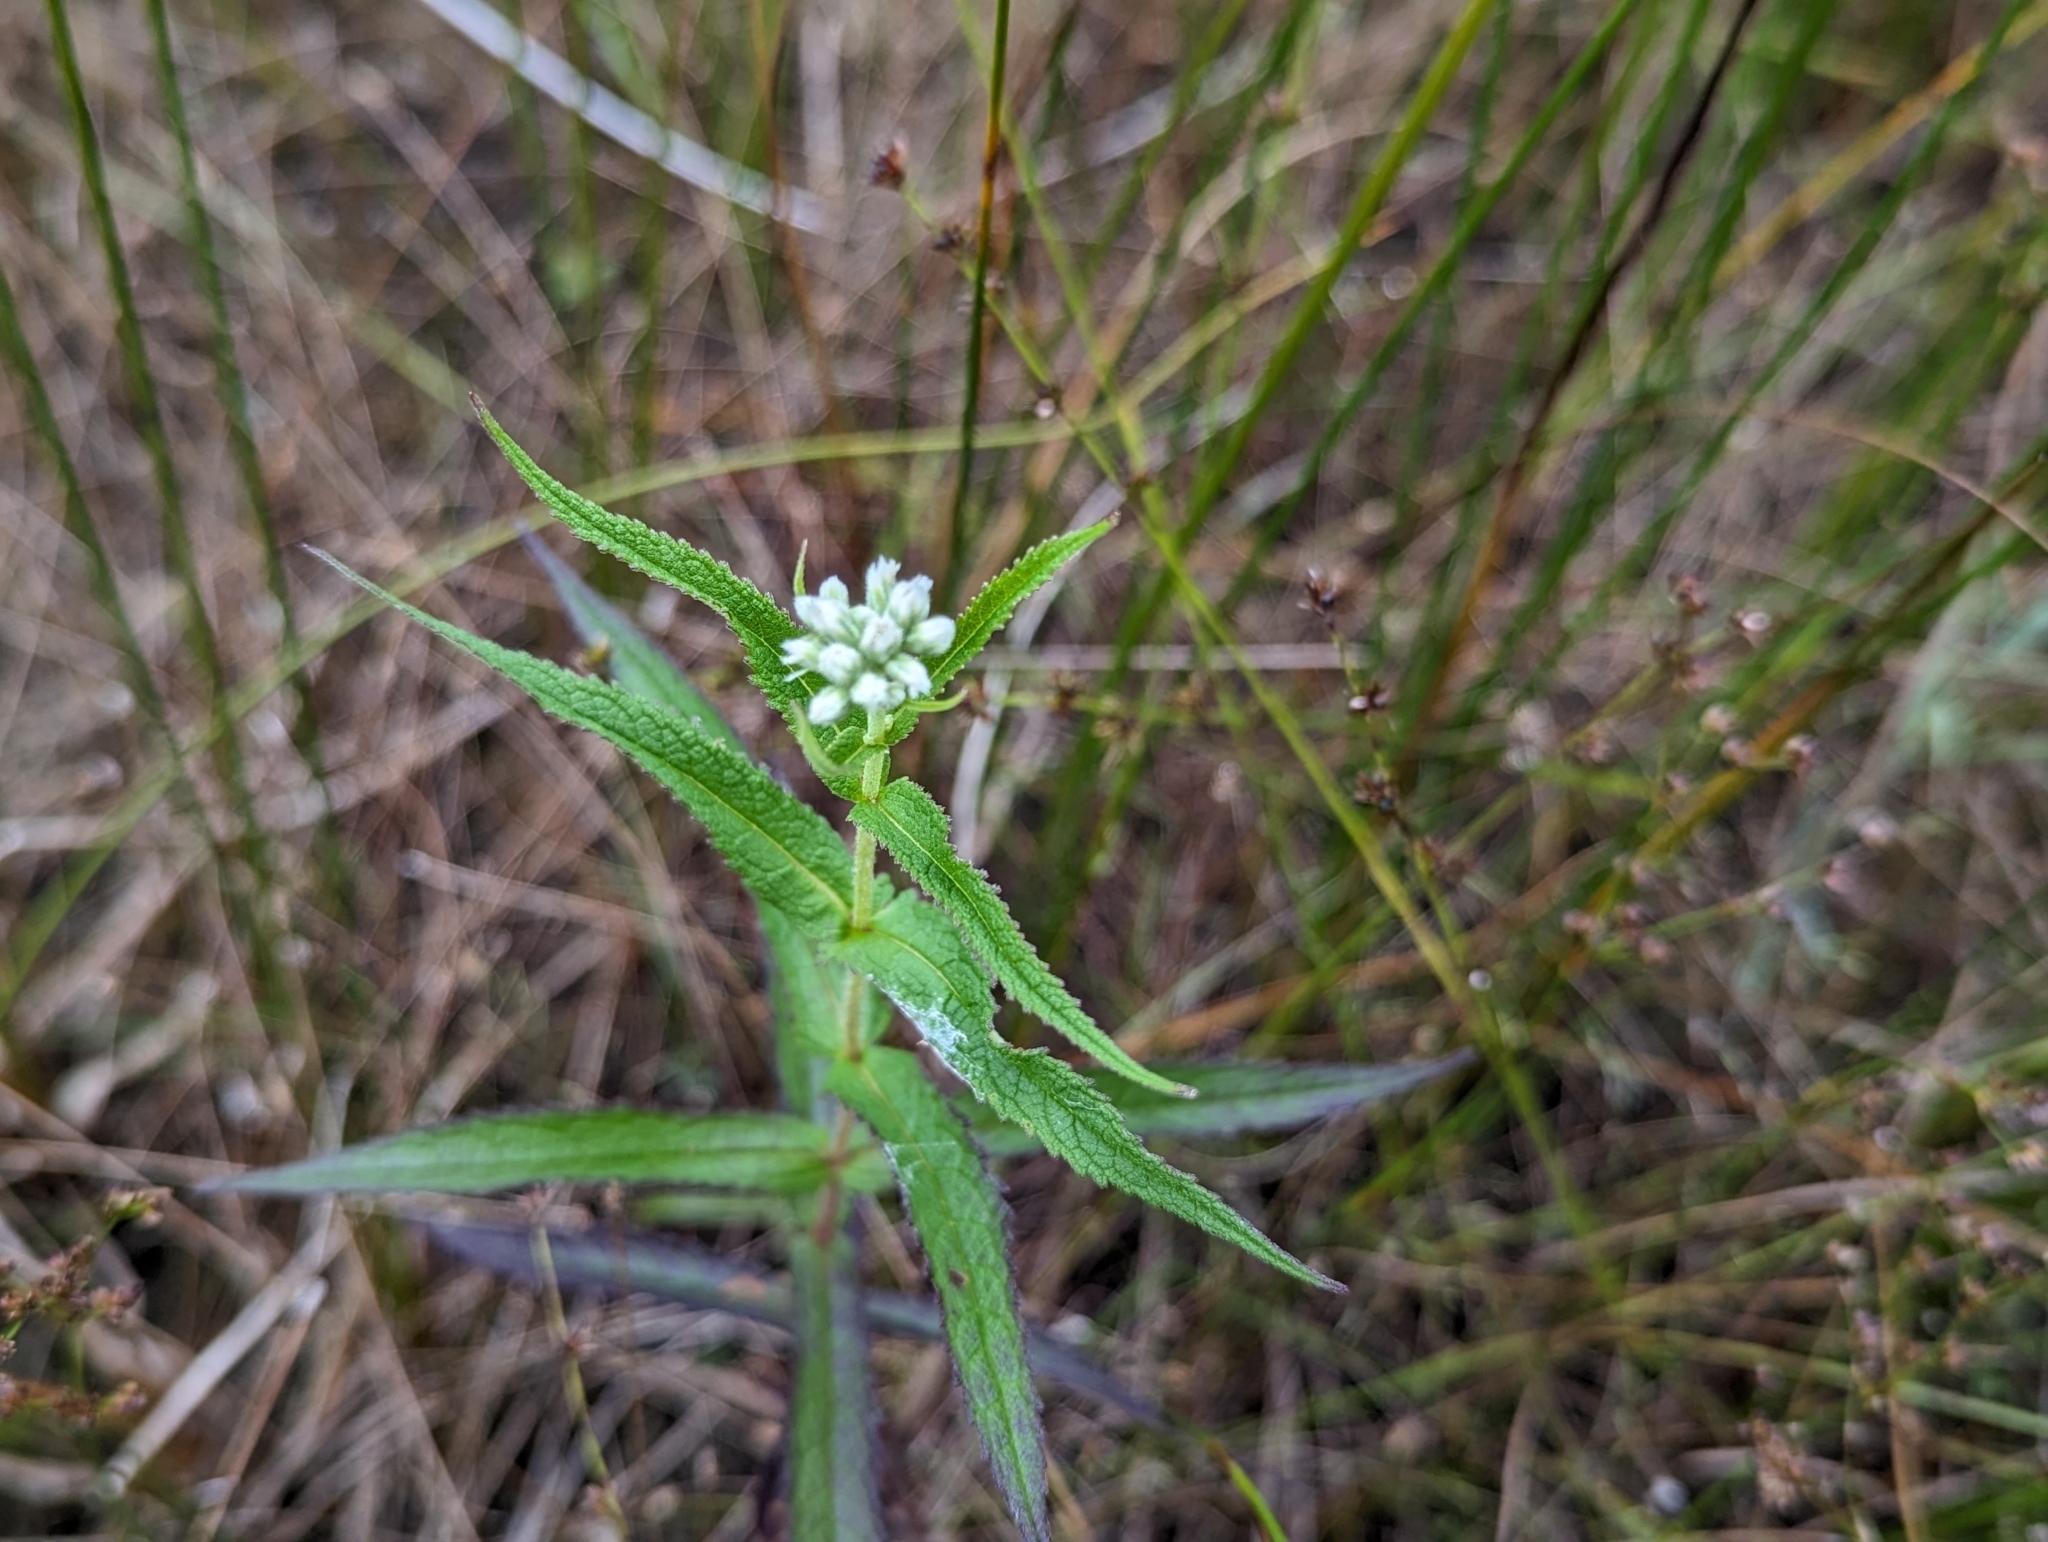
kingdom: Plantae
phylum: Tracheophyta
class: Magnoliopsida
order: Asterales
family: Asteraceae
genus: Eupatorium
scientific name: Eupatorium perfoliatum
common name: Boneset
